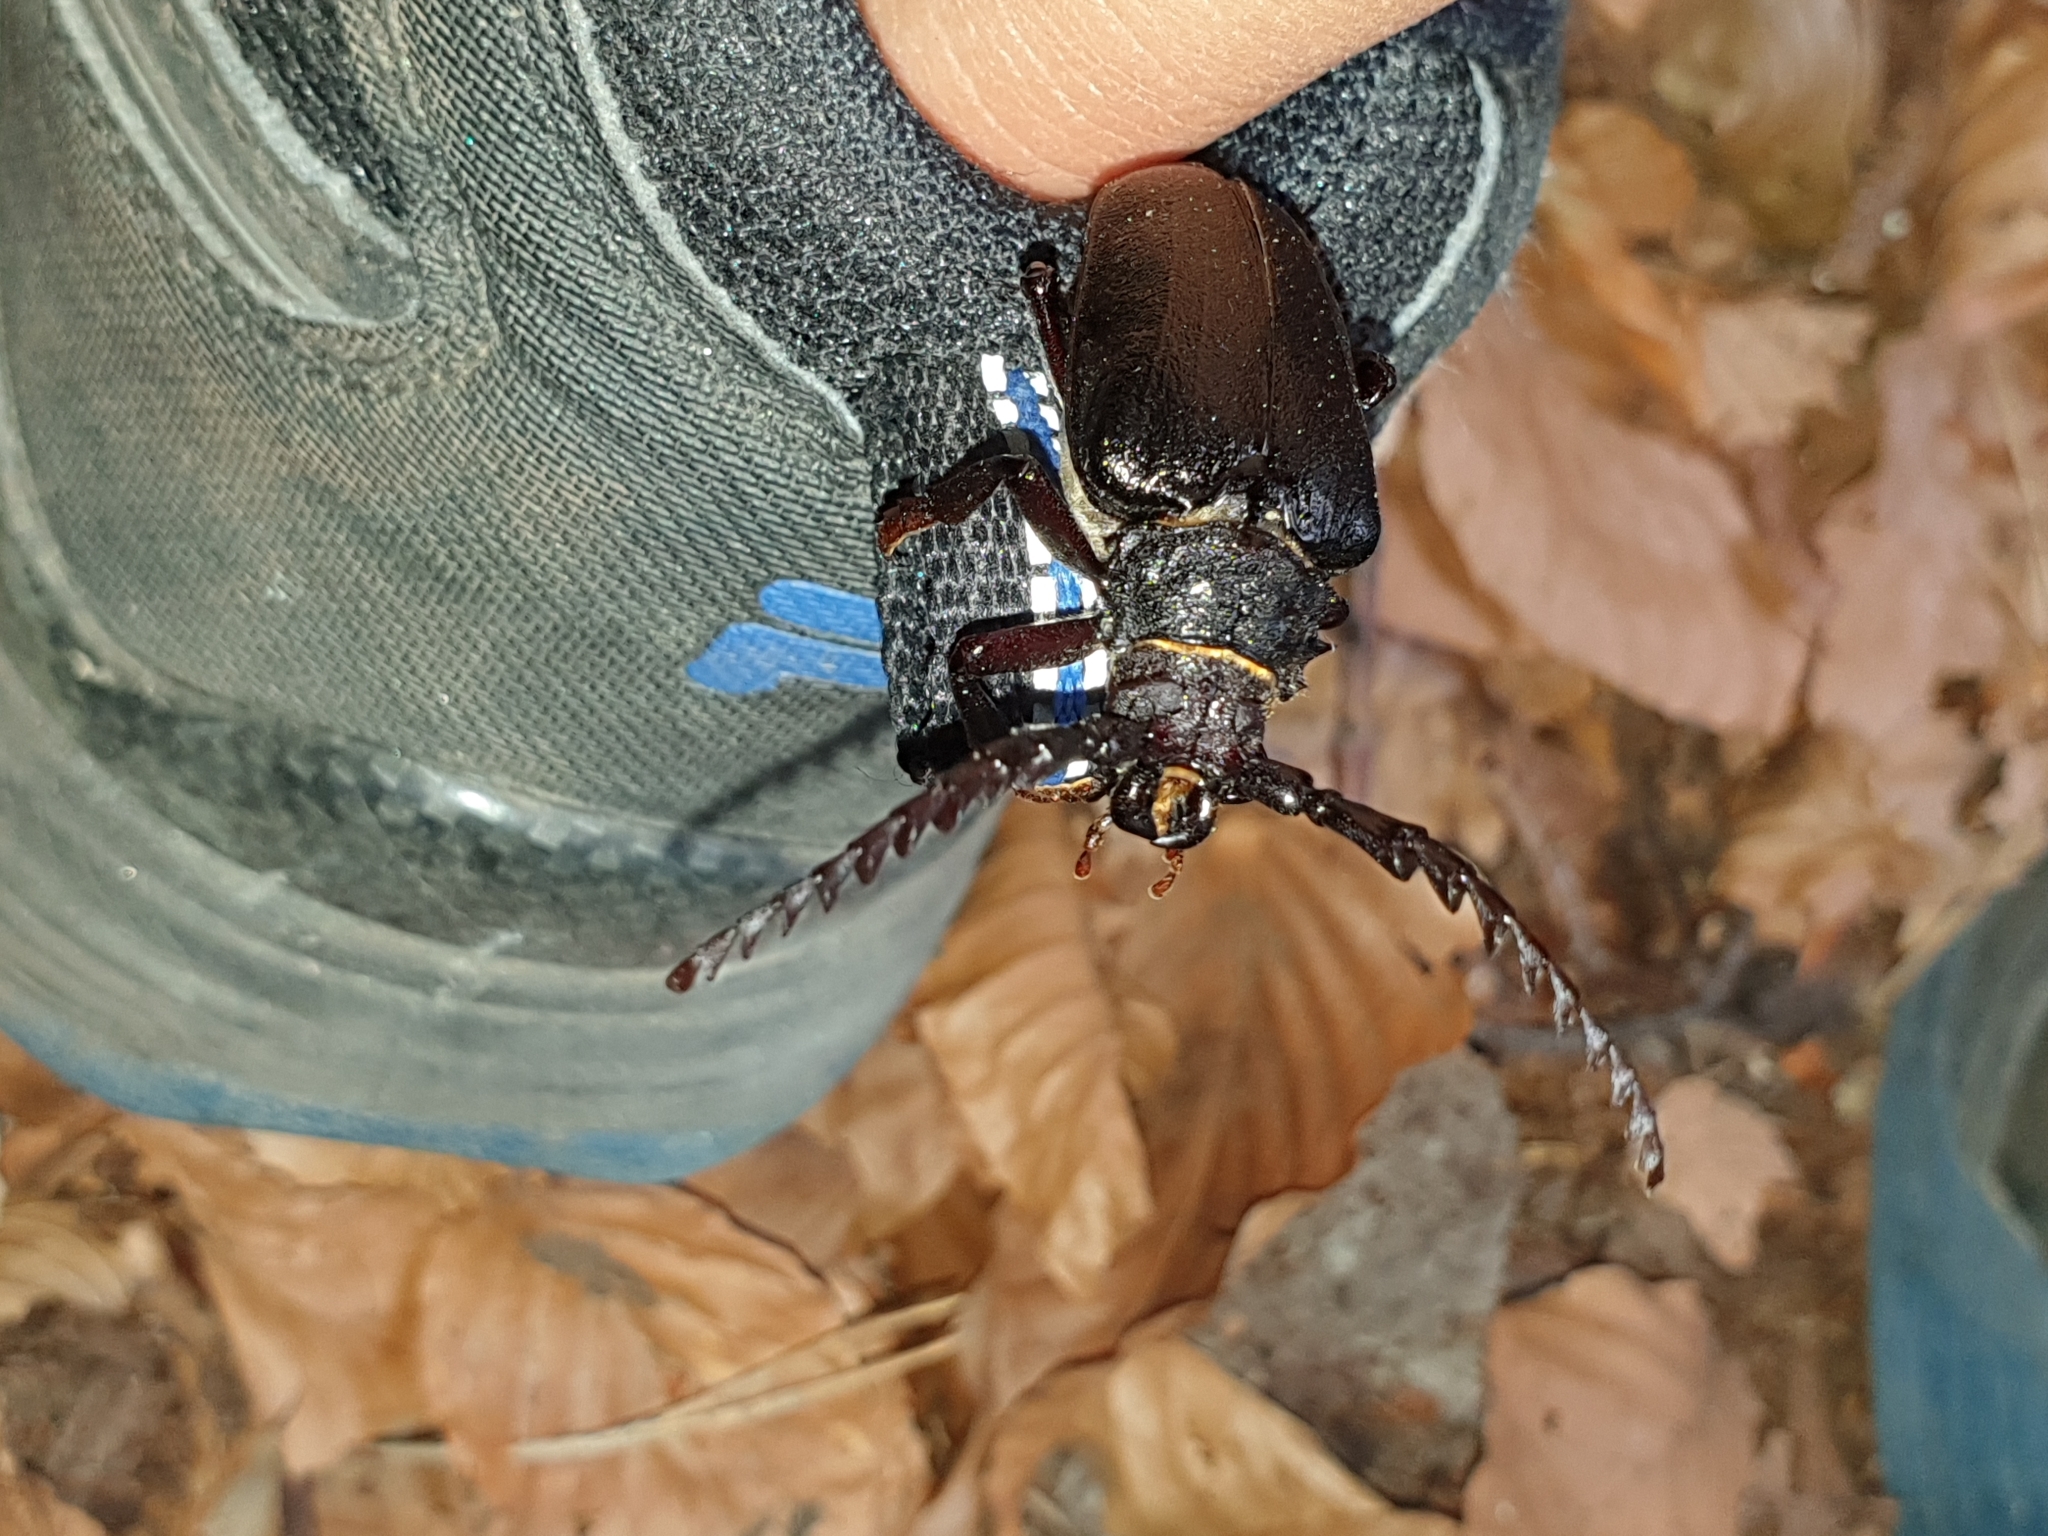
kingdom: Animalia
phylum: Arthropoda
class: Insecta
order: Coleoptera
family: Cerambycidae
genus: Prionus
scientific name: Prionus coriarius
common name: Tanner beetle
